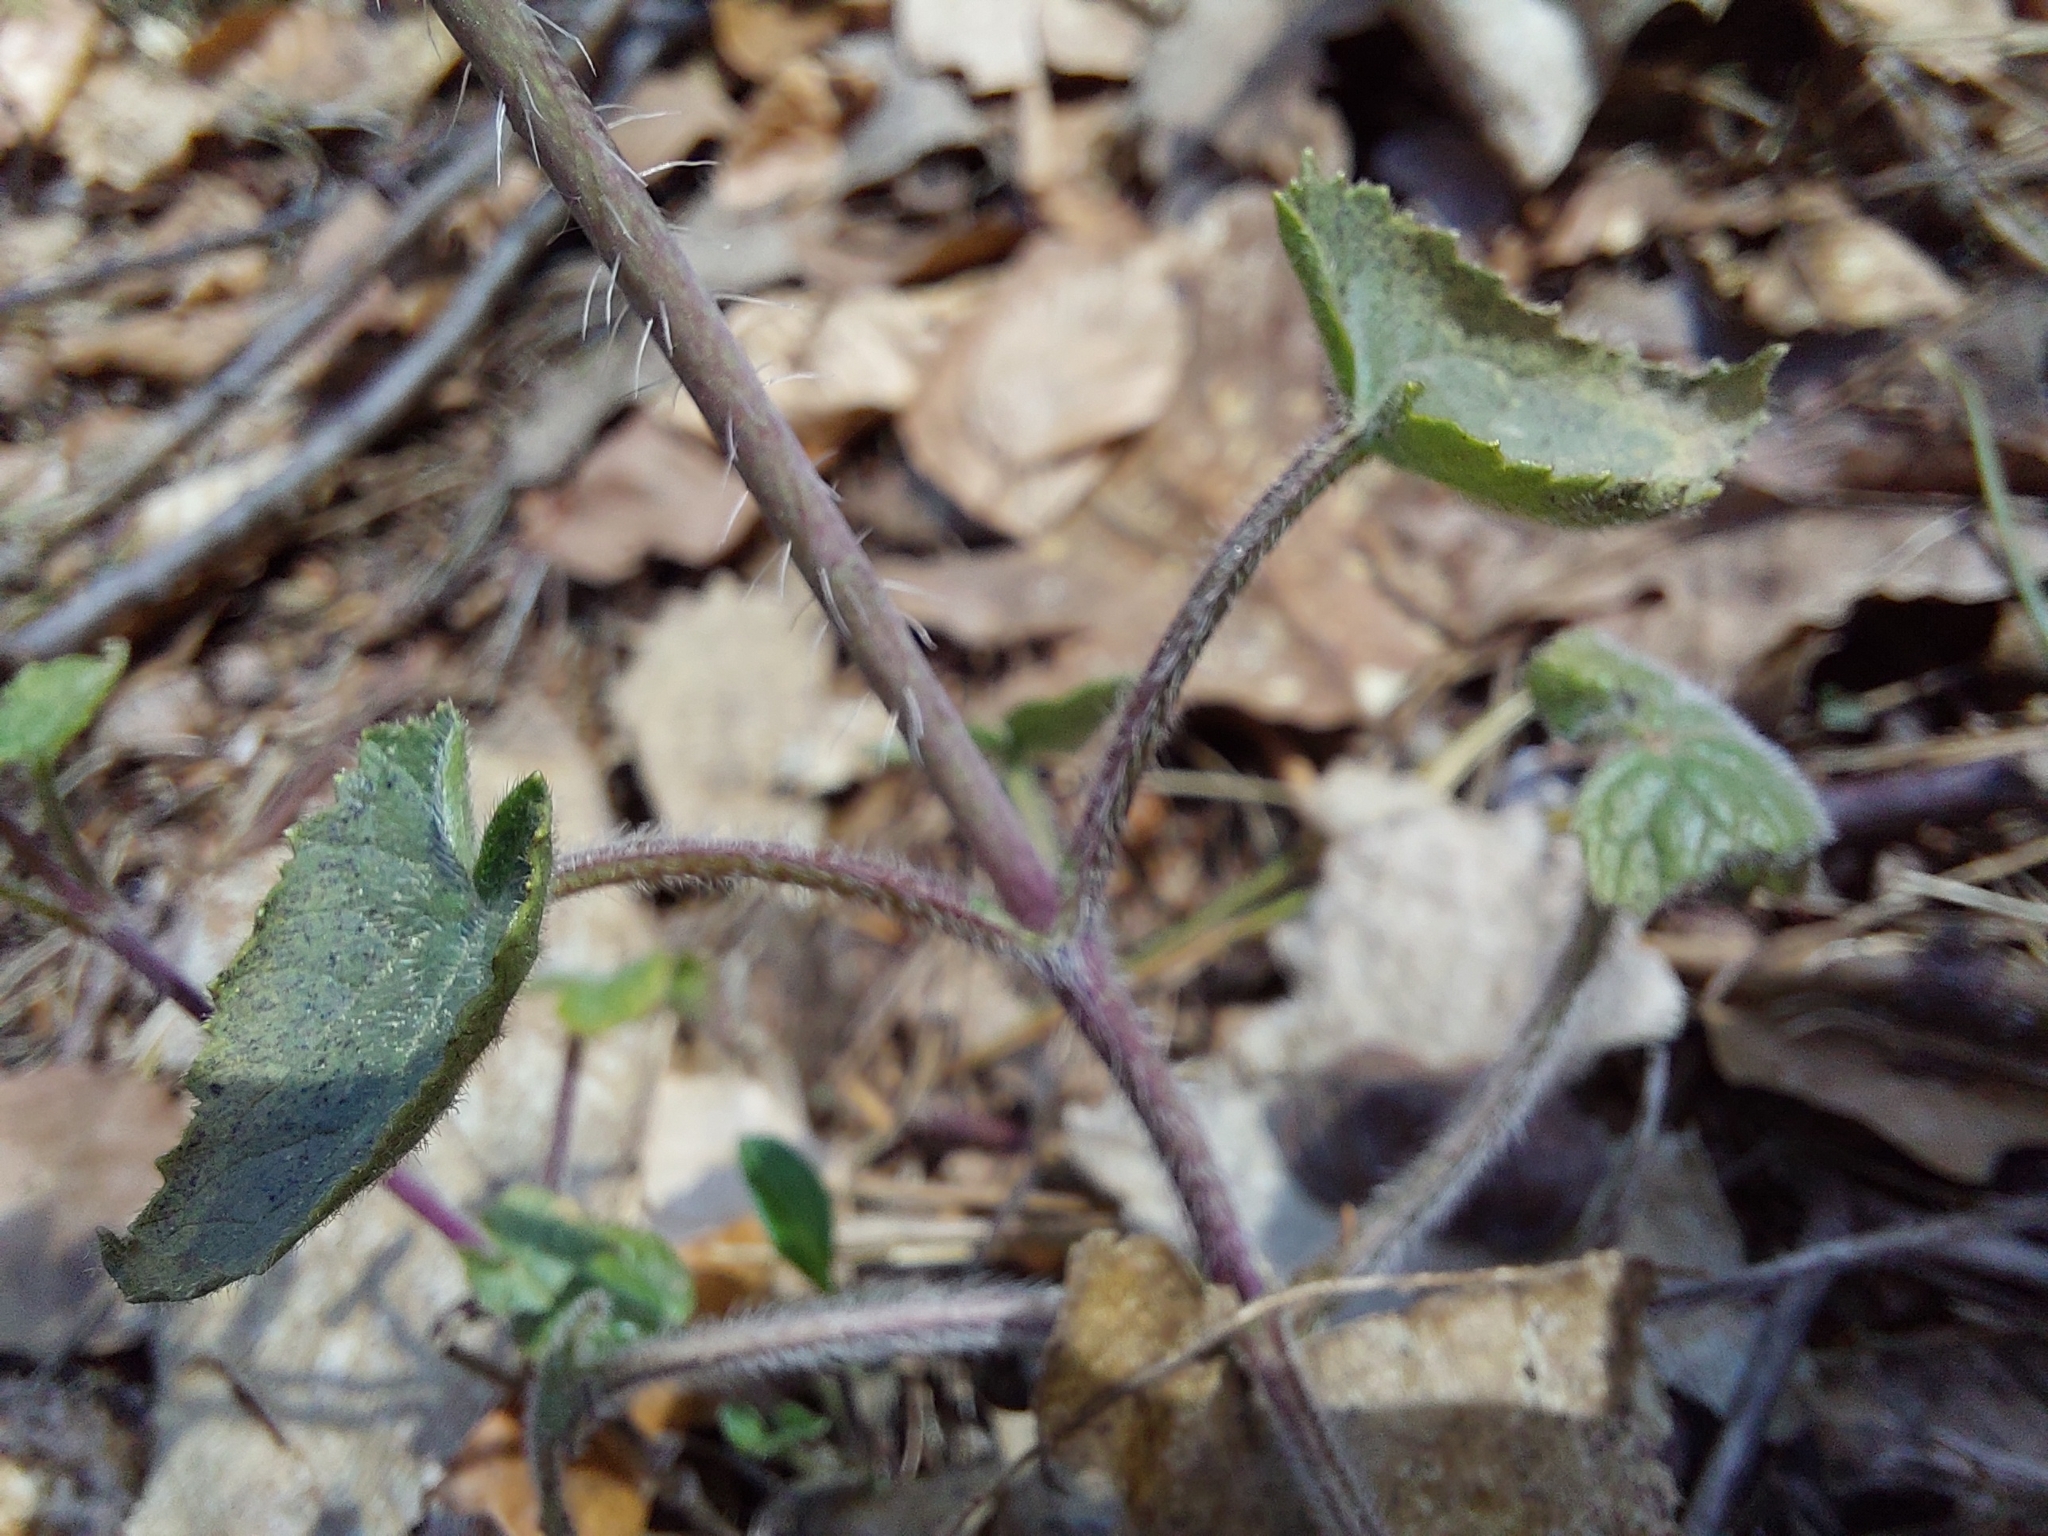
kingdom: Plantae
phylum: Tracheophyta
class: Magnoliopsida
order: Brassicales
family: Brassicaceae
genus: Lunaria
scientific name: Lunaria annua
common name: Honesty
